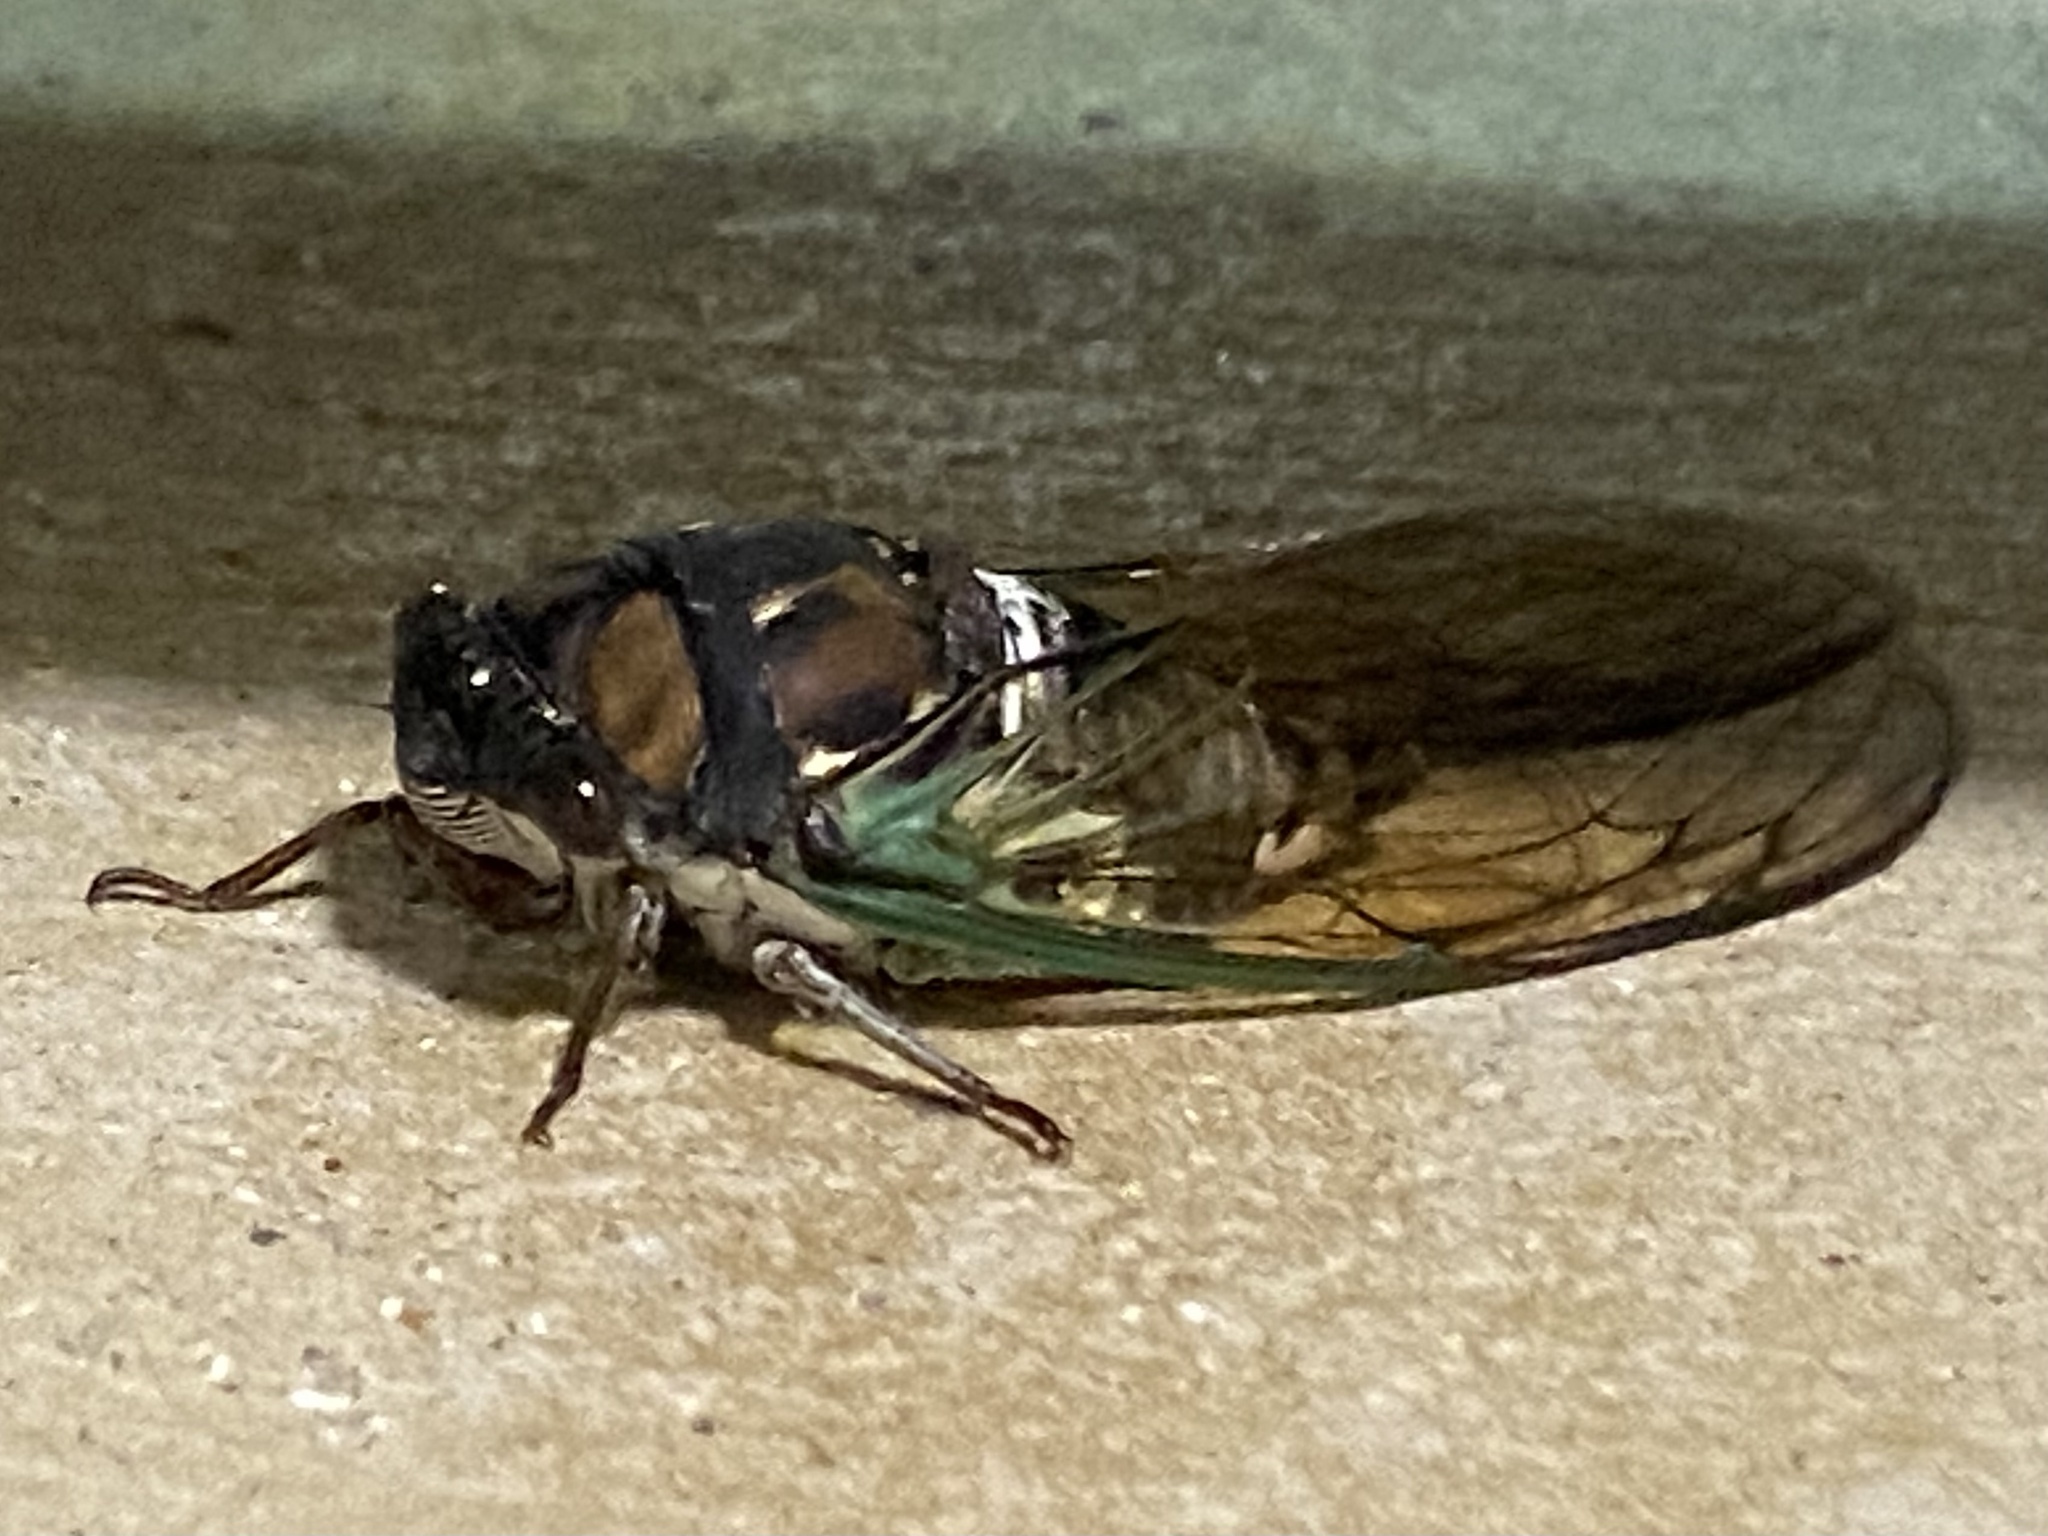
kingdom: Animalia
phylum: Arthropoda
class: Insecta
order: Hemiptera
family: Cicadidae
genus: Neotibicen
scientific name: Neotibicen lyricen
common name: Lyric cicada
